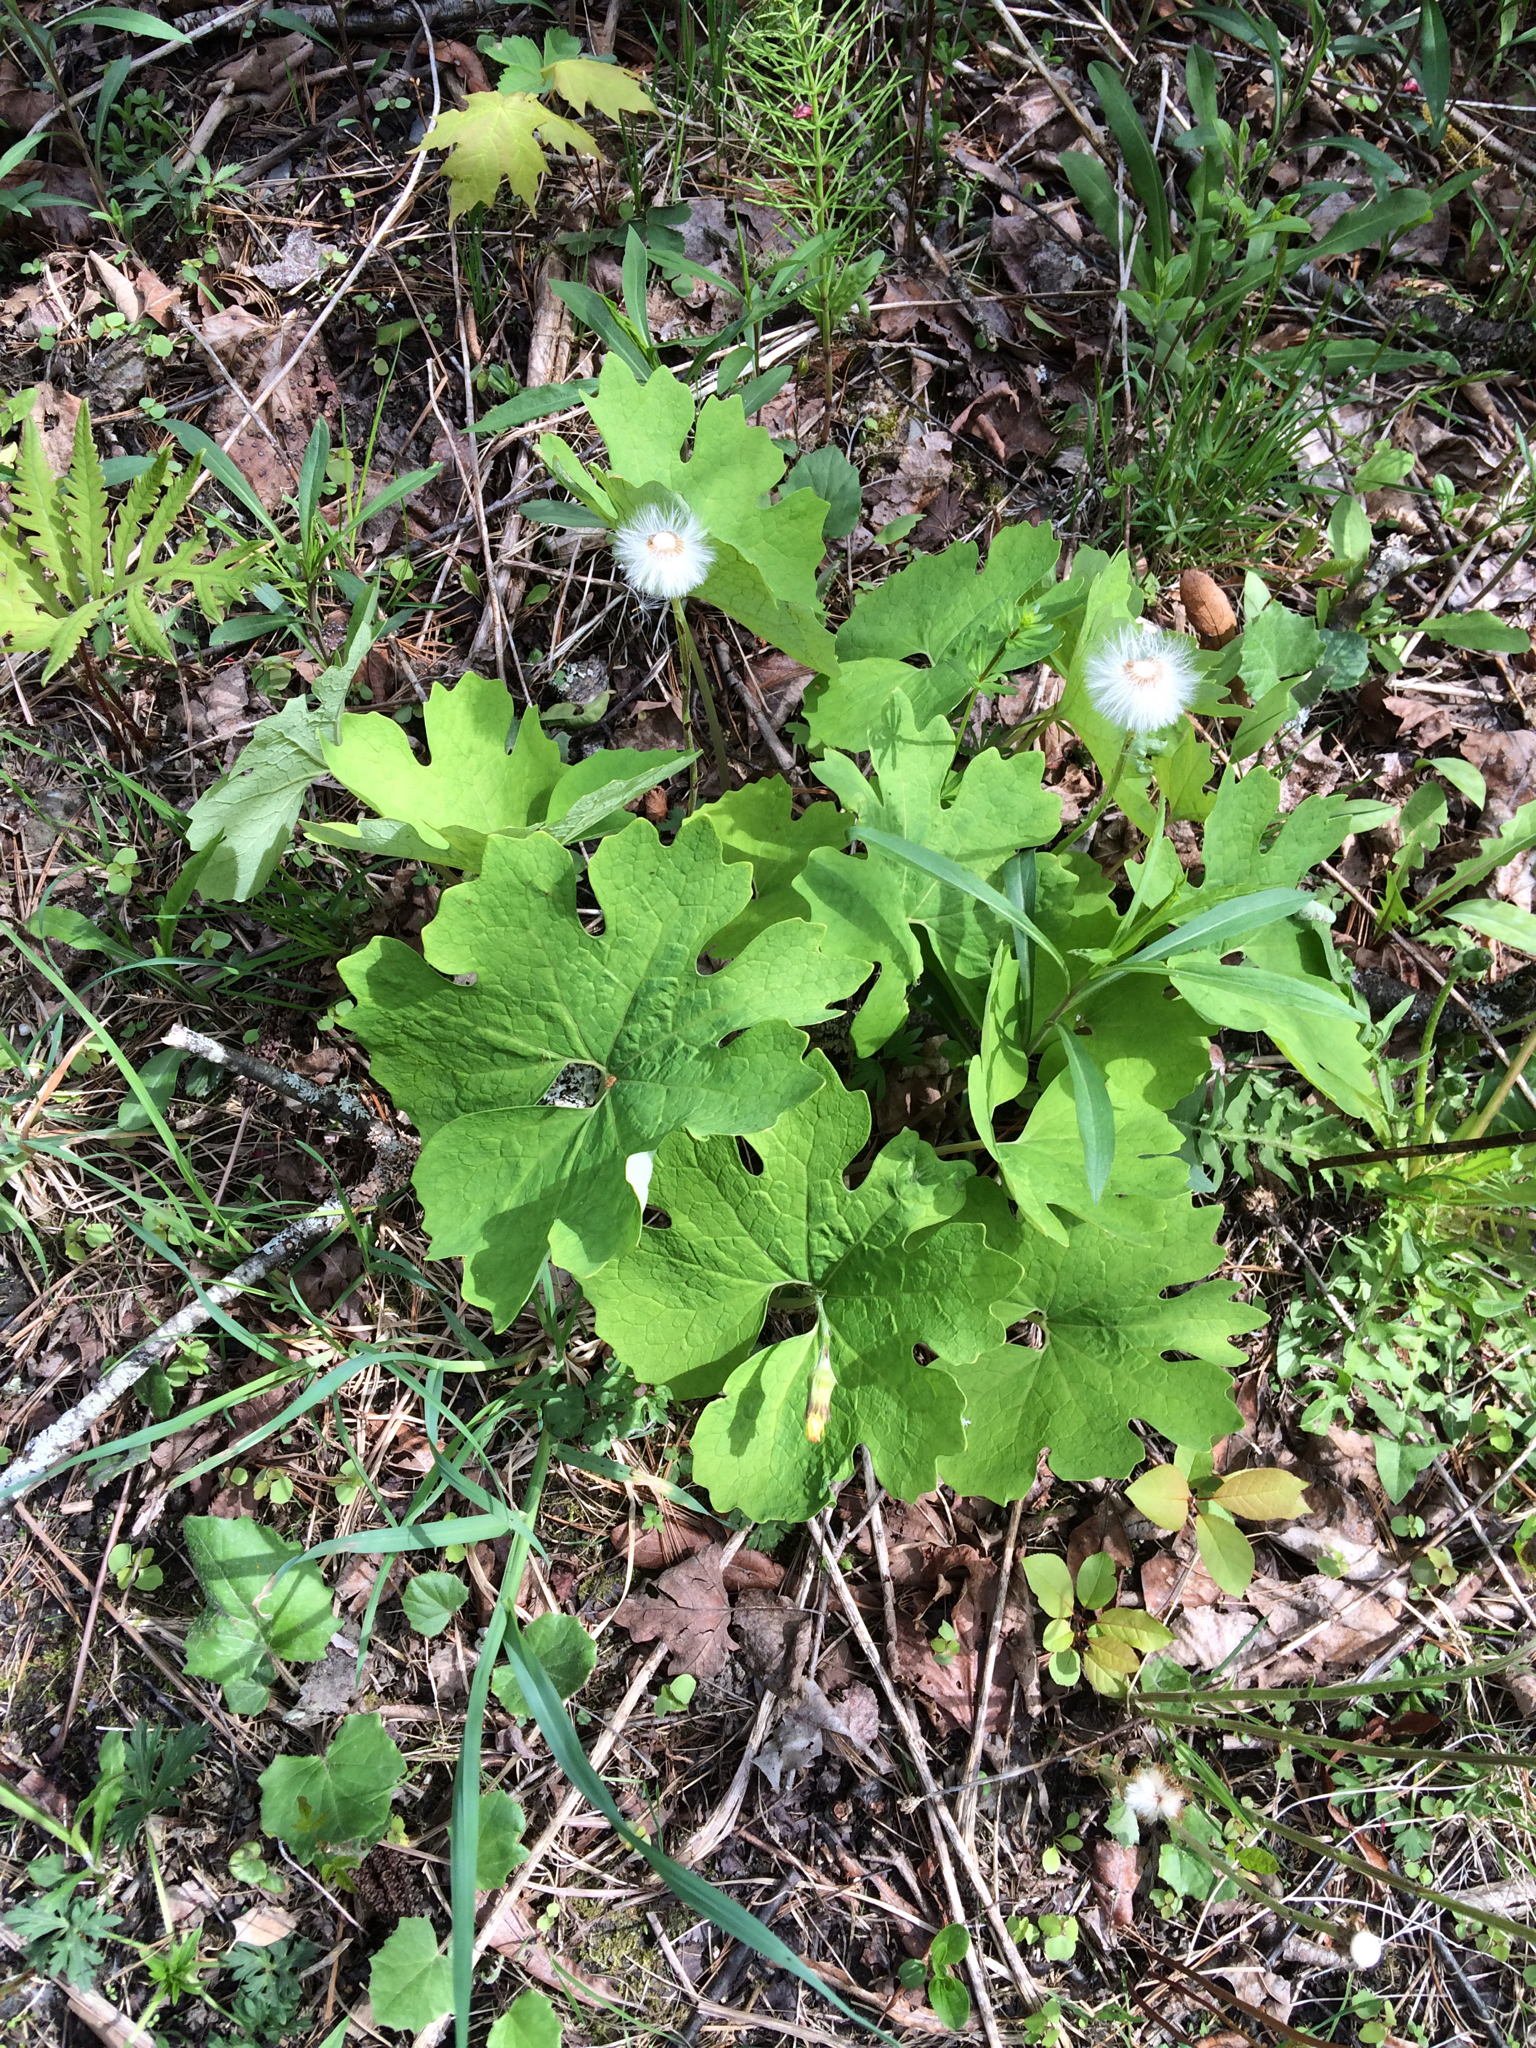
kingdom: Plantae
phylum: Tracheophyta
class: Magnoliopsida
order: Ranunculales
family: Papaveraceae
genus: Sanguinaria
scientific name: Sanguinaria canadensis
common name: Bloodroot
